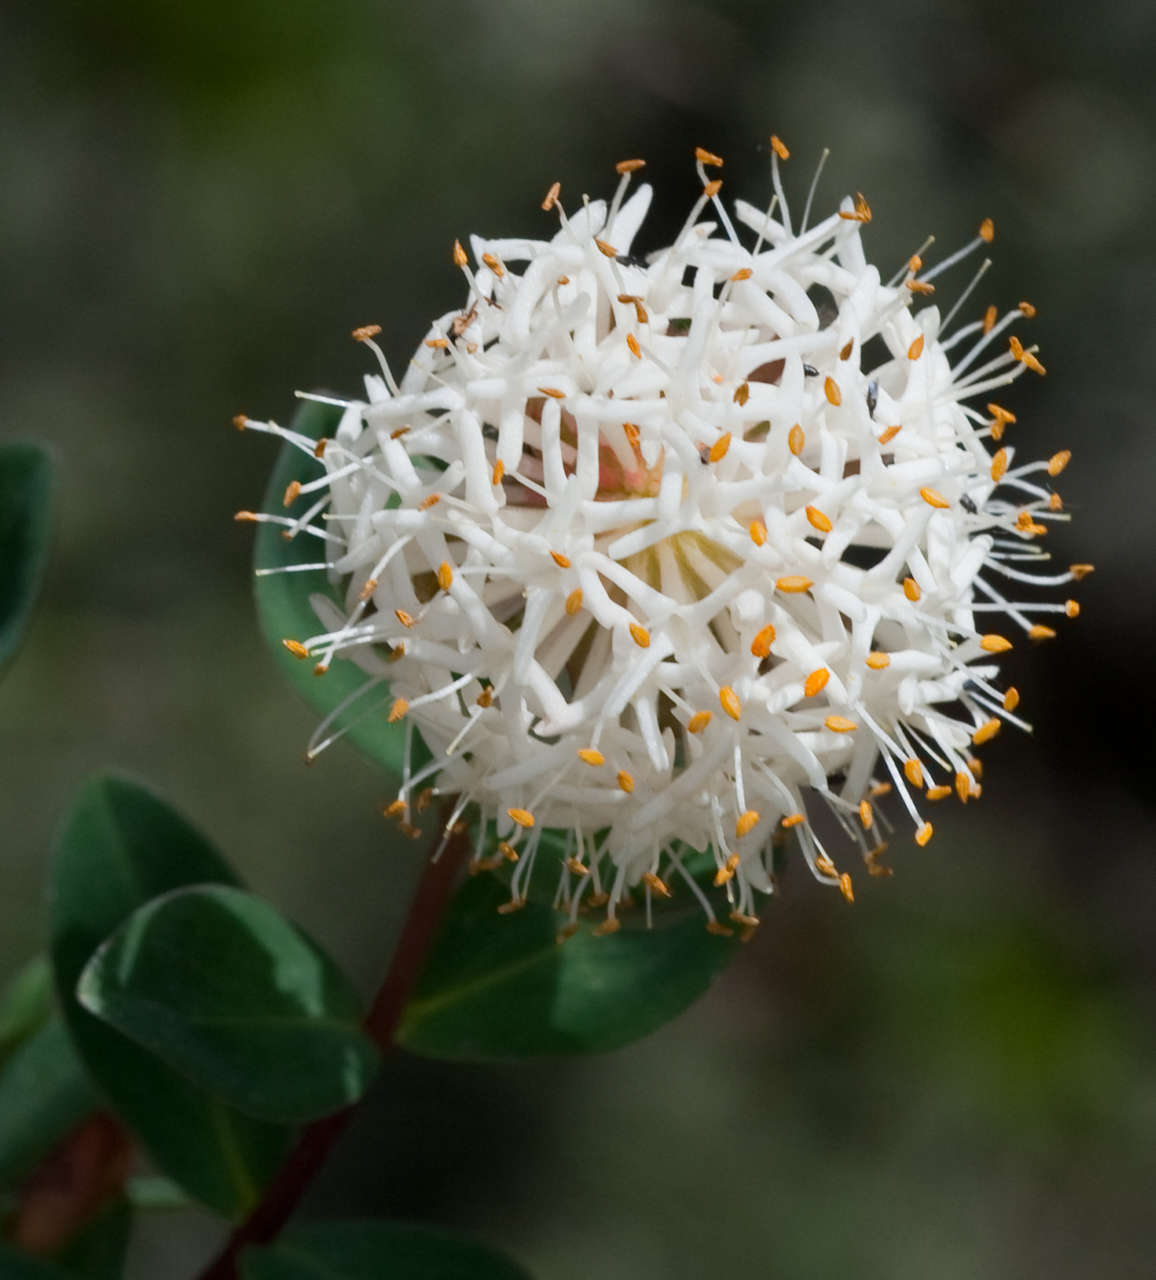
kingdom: Plantae
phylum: Tracheophyta
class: Magnoliopsida
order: Malvales
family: Thymelaeaceae
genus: Pimelea
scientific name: Pimelea ligustrina
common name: Tall riceflower
